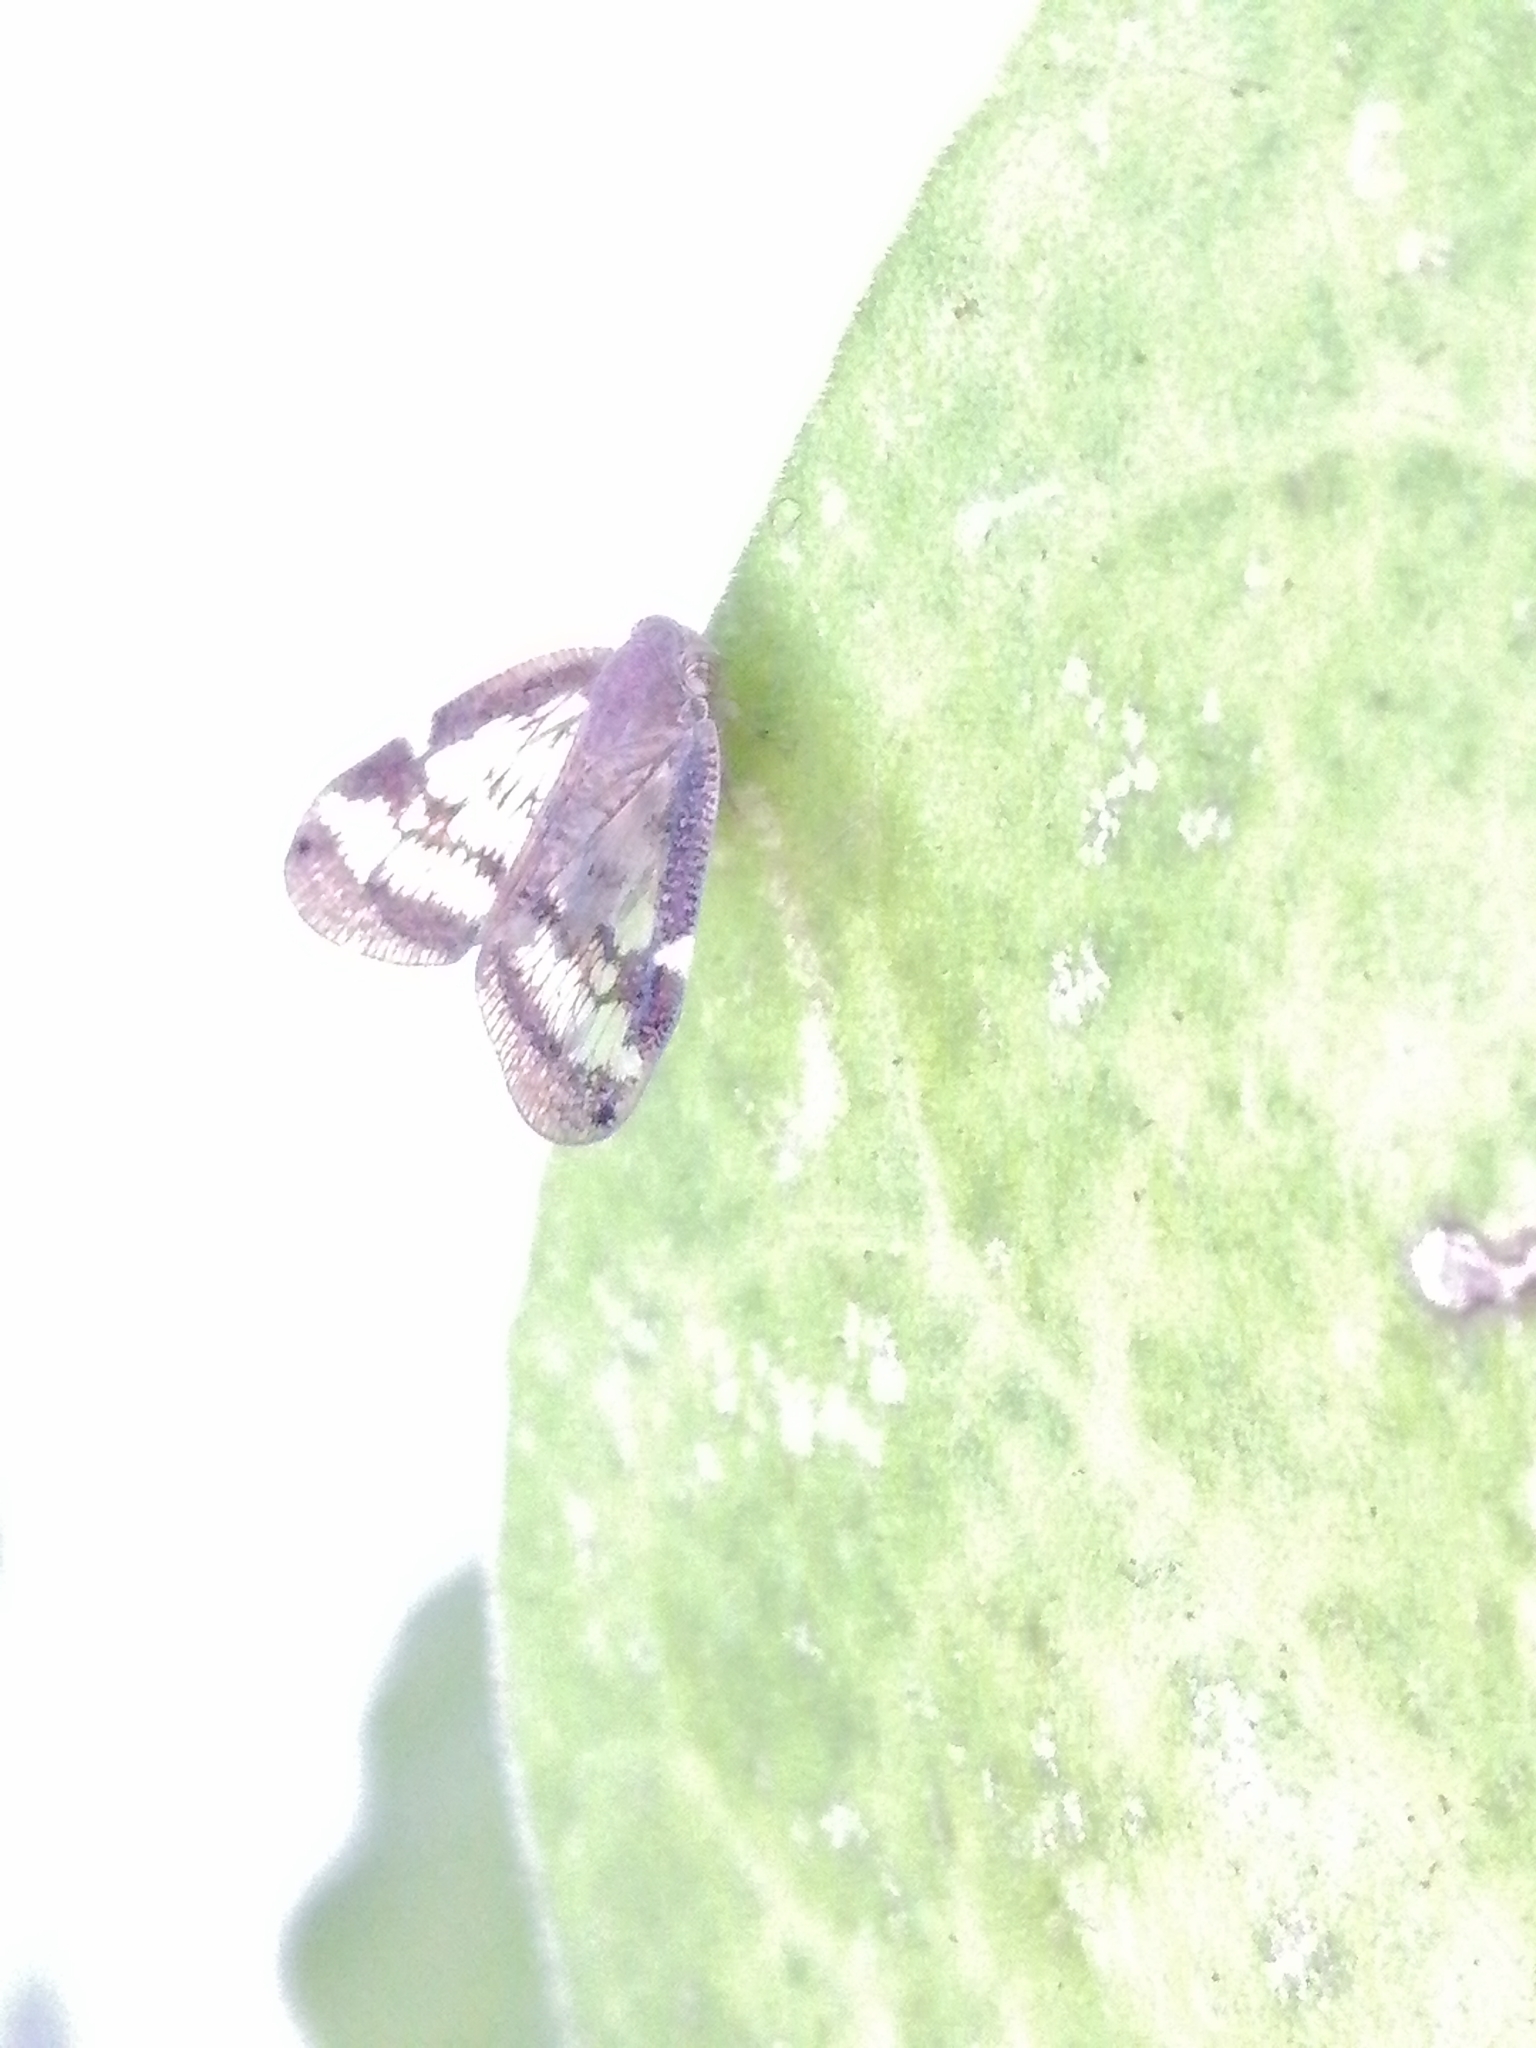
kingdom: Animalia
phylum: Arthropoda
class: Insecta
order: Hemiptera
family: Ricaniidae
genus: Scolypopa
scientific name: Scolypopa australis
